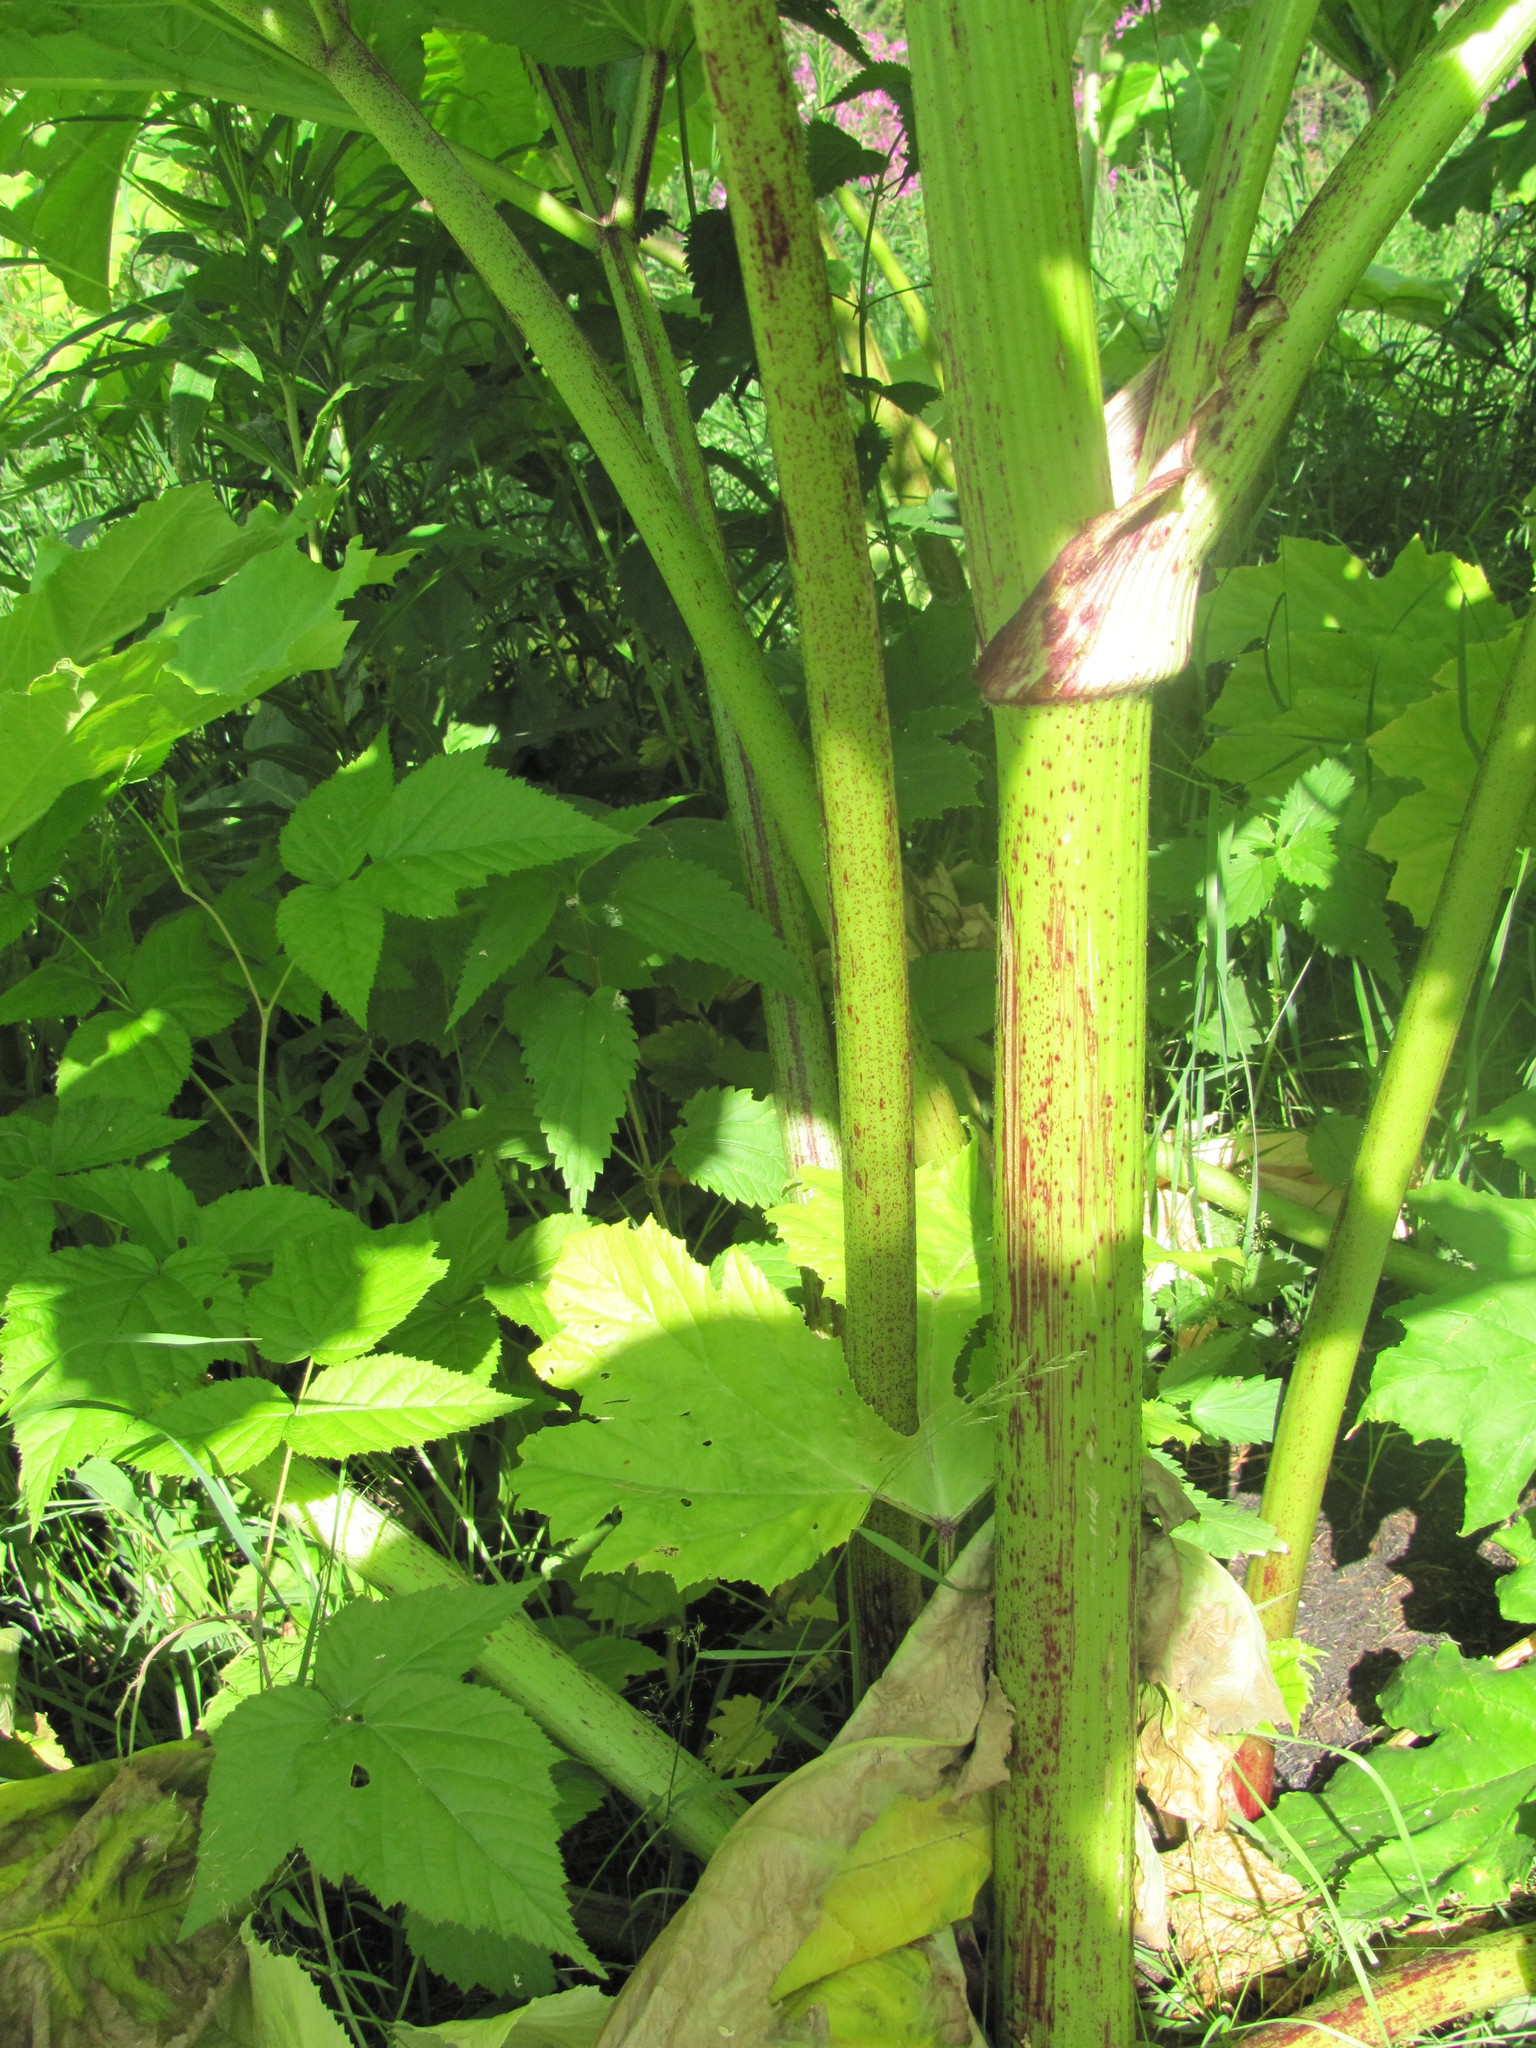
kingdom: Plantae
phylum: Tracheophyta
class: Magnoliopsida
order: Apiales
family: Apiaceae
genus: Heracleum
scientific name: Heracleum sosnowskyi
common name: Sosnowsky's hogweed
